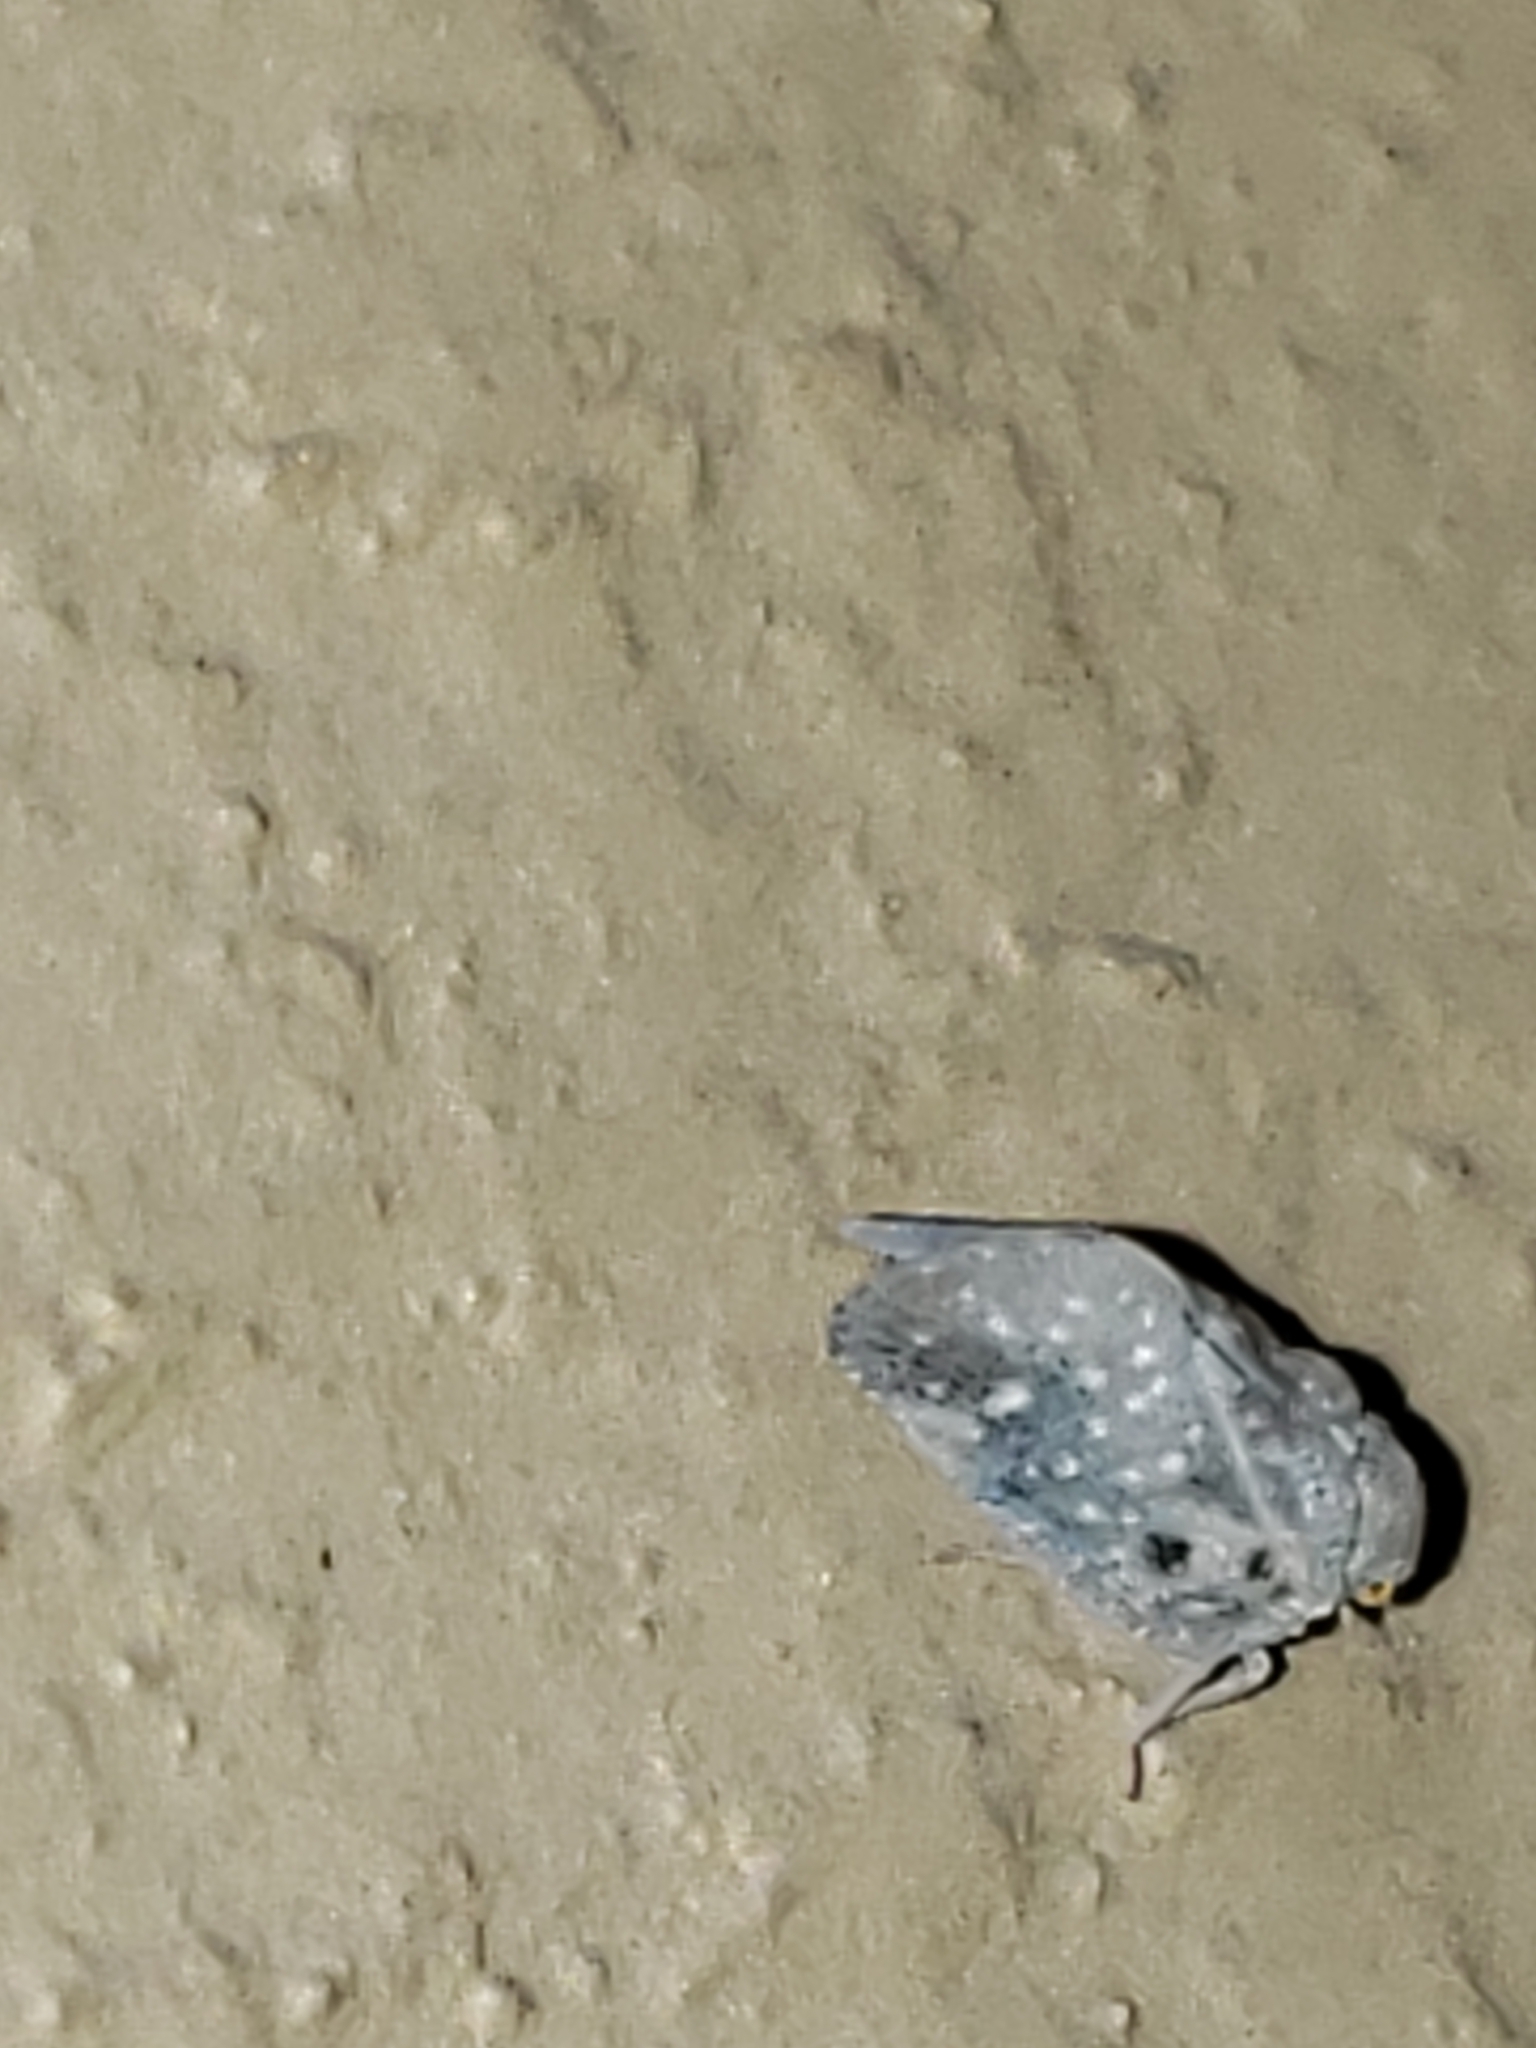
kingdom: Animalia
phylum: Arthropoda
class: Insecta
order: Hemiptera
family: Flatidae
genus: Metcalfa
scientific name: Metcalfa pruinosa
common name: Citrus flatid planthopper
